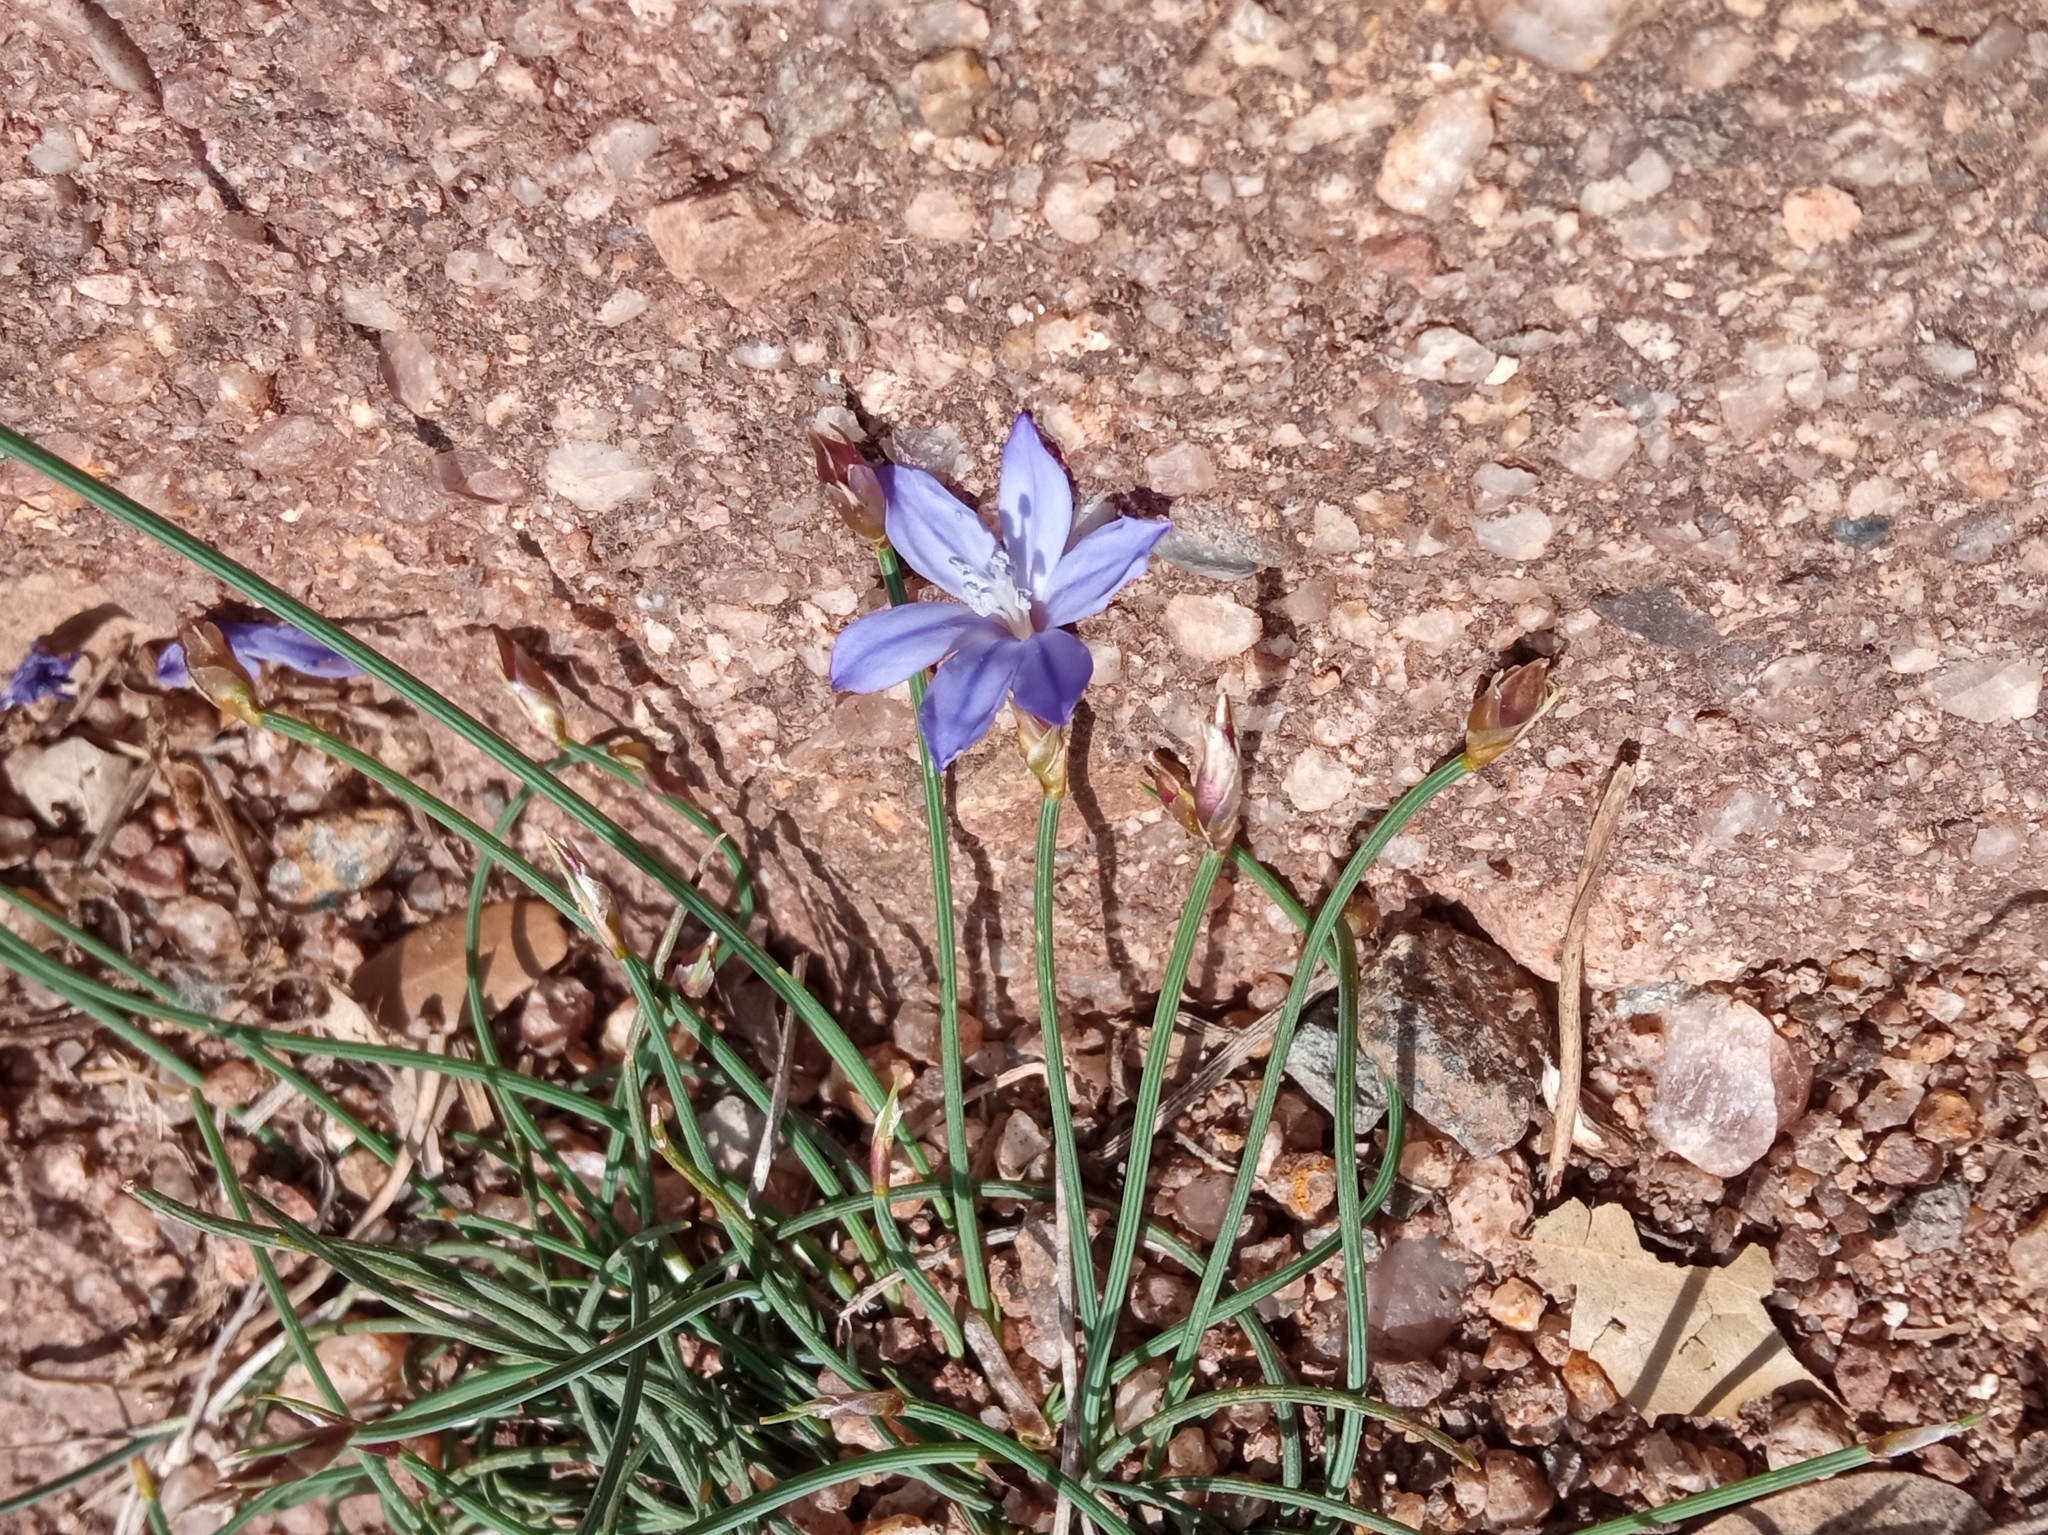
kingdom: Plantae
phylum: Tracheophyta
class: Liliopsida
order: Asparagales
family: Asparagaceae
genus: Aphyllanthes
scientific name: Aphyllanthes monspeliensis
